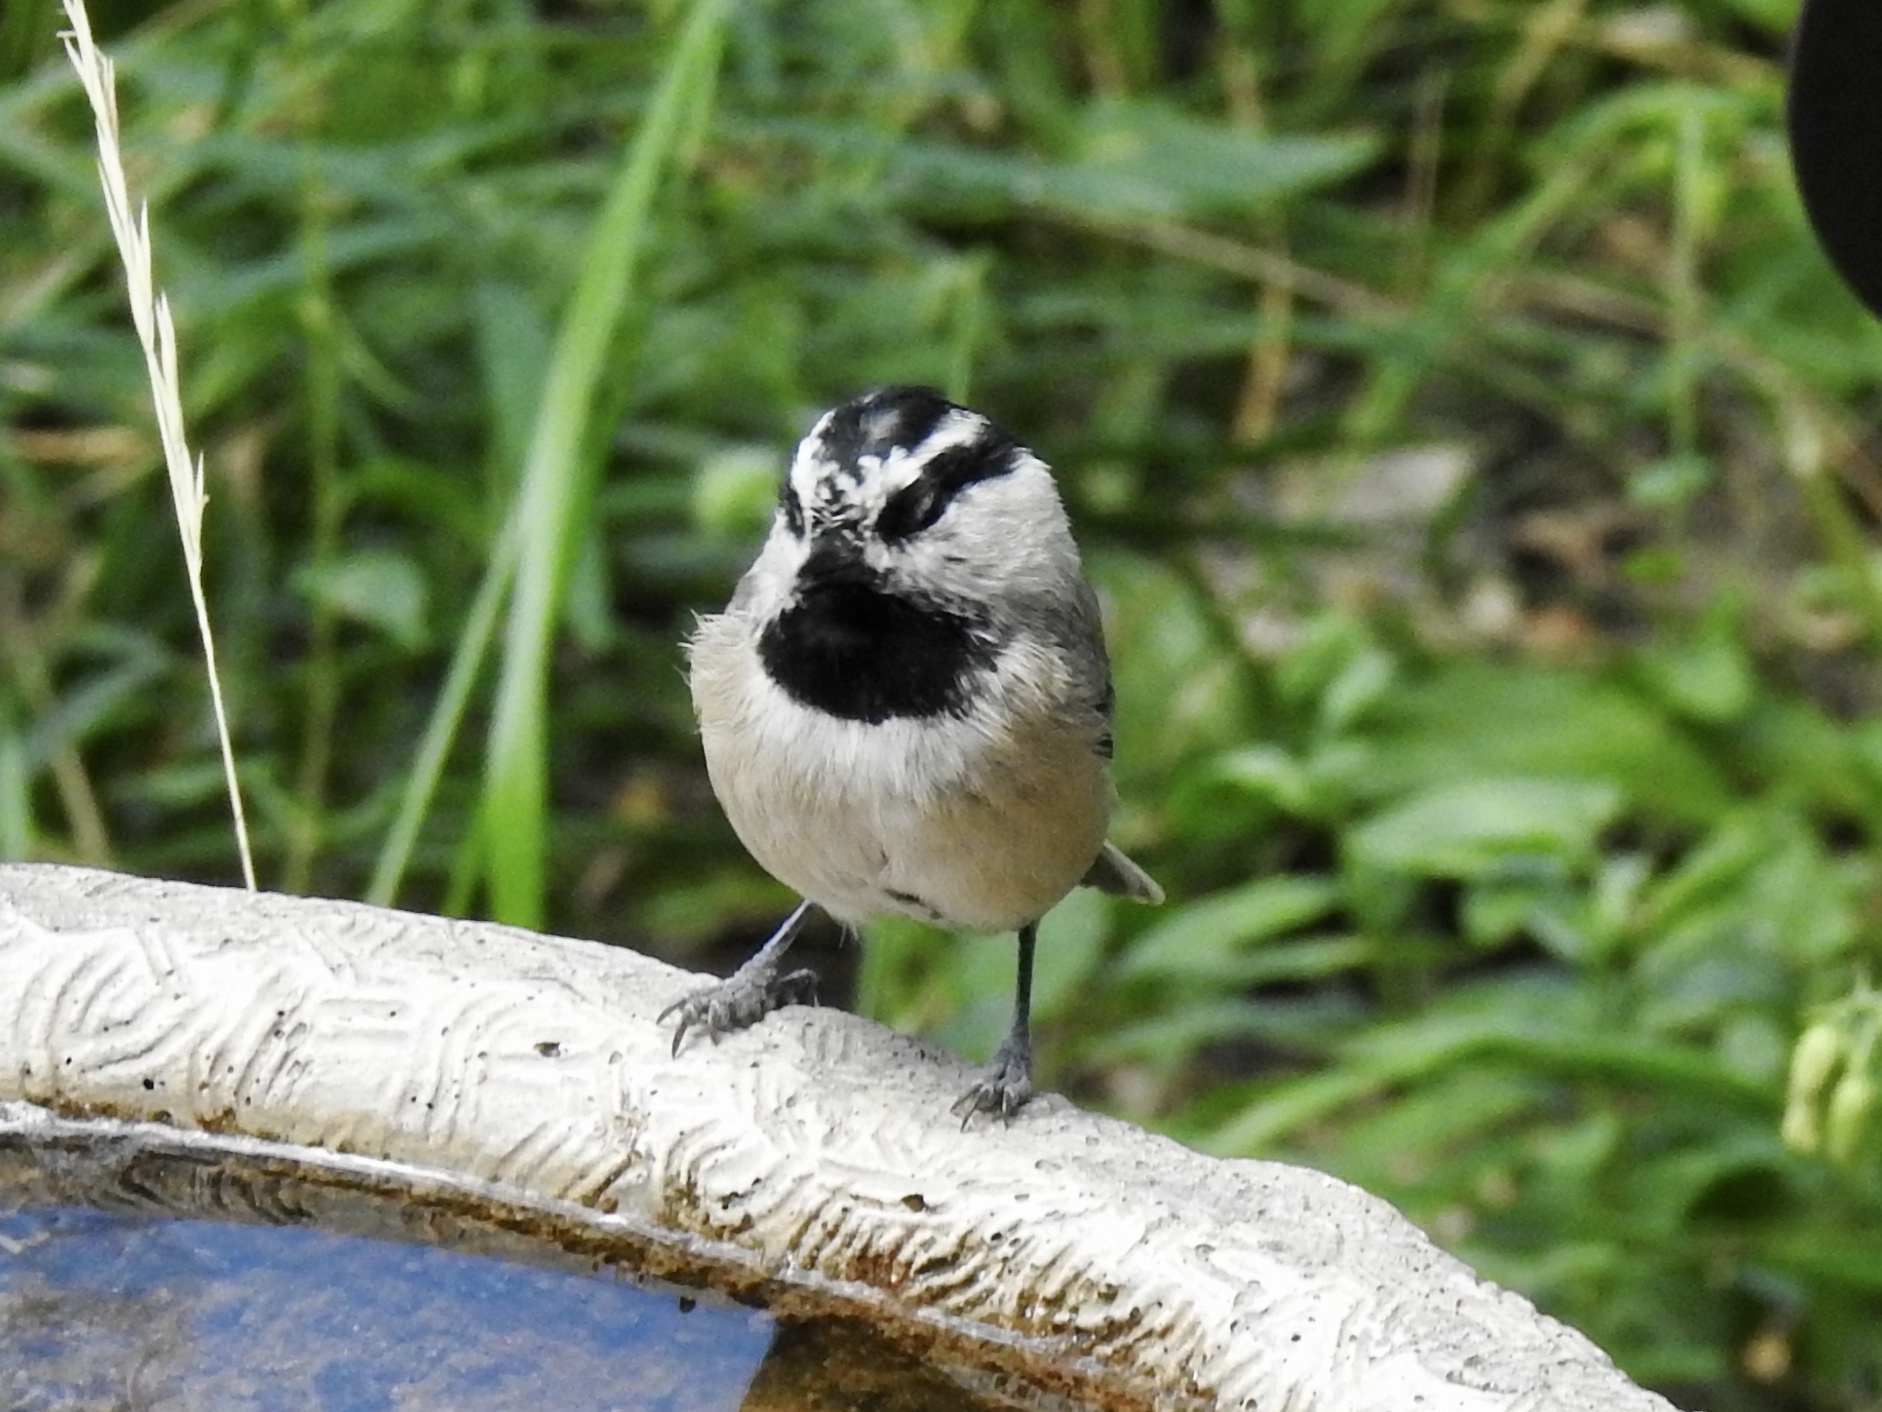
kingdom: Animalia
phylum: Chordata
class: Aves
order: Passeriformes
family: Paridae
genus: Poecile
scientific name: Poecile gambeli
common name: Mountain chickadee
